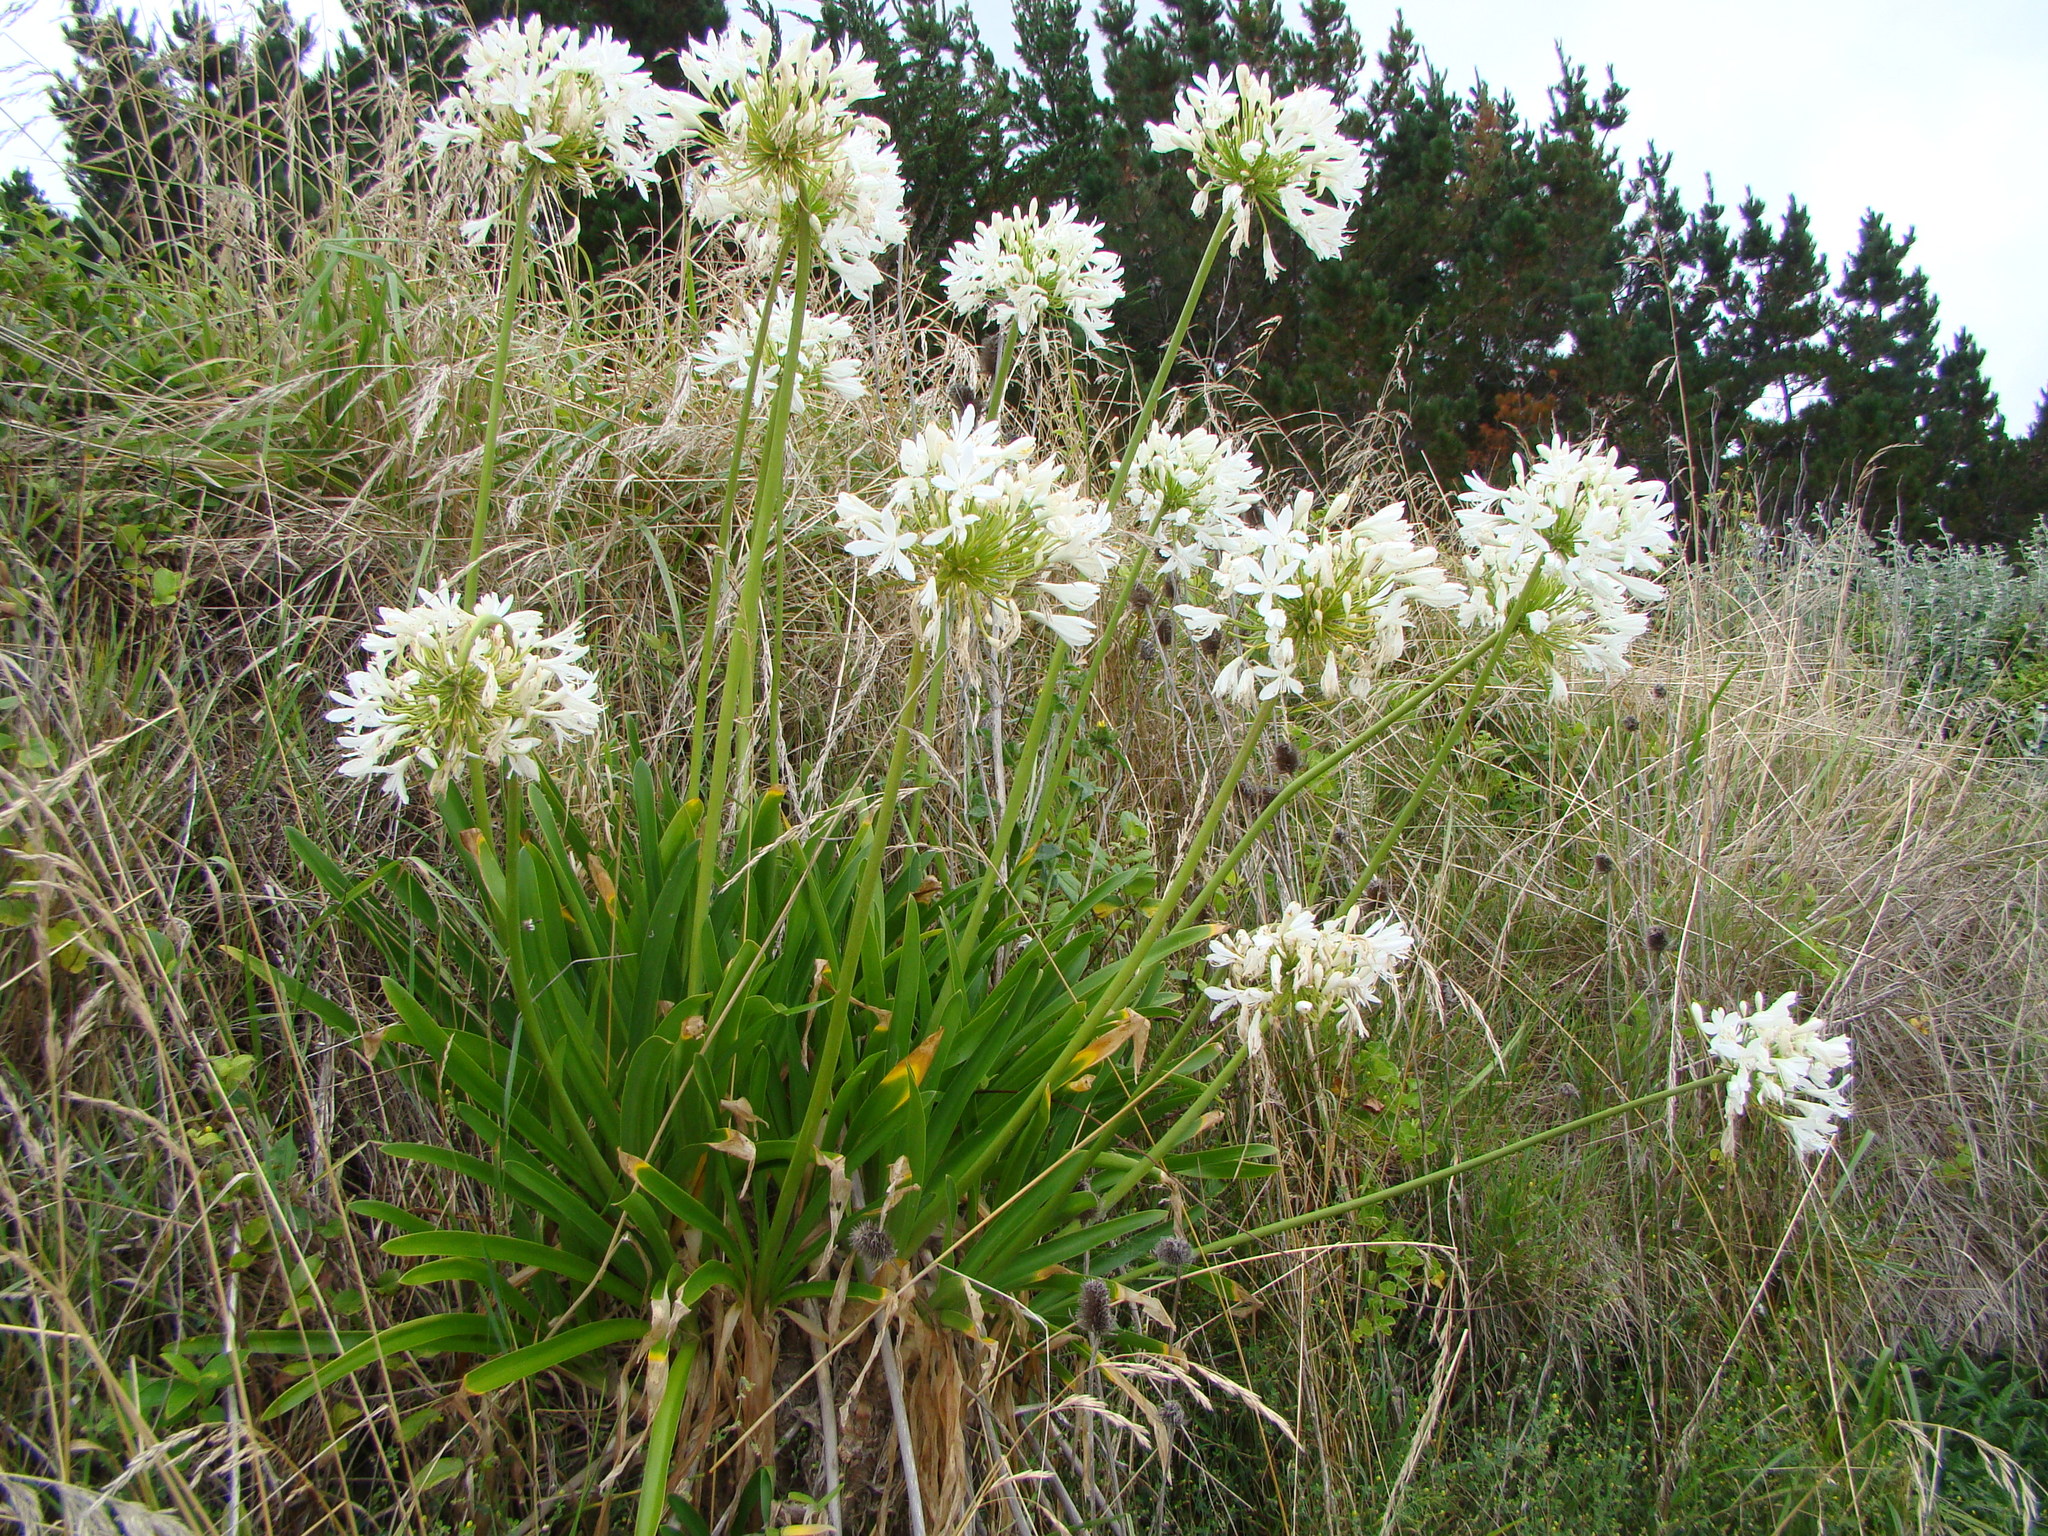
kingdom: Plantae
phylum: Tracheophyta
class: Liliopsida
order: Asparagales
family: Amaryllidaceae
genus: Agapanthus
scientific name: Agapanthus praecox
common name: African-lily
